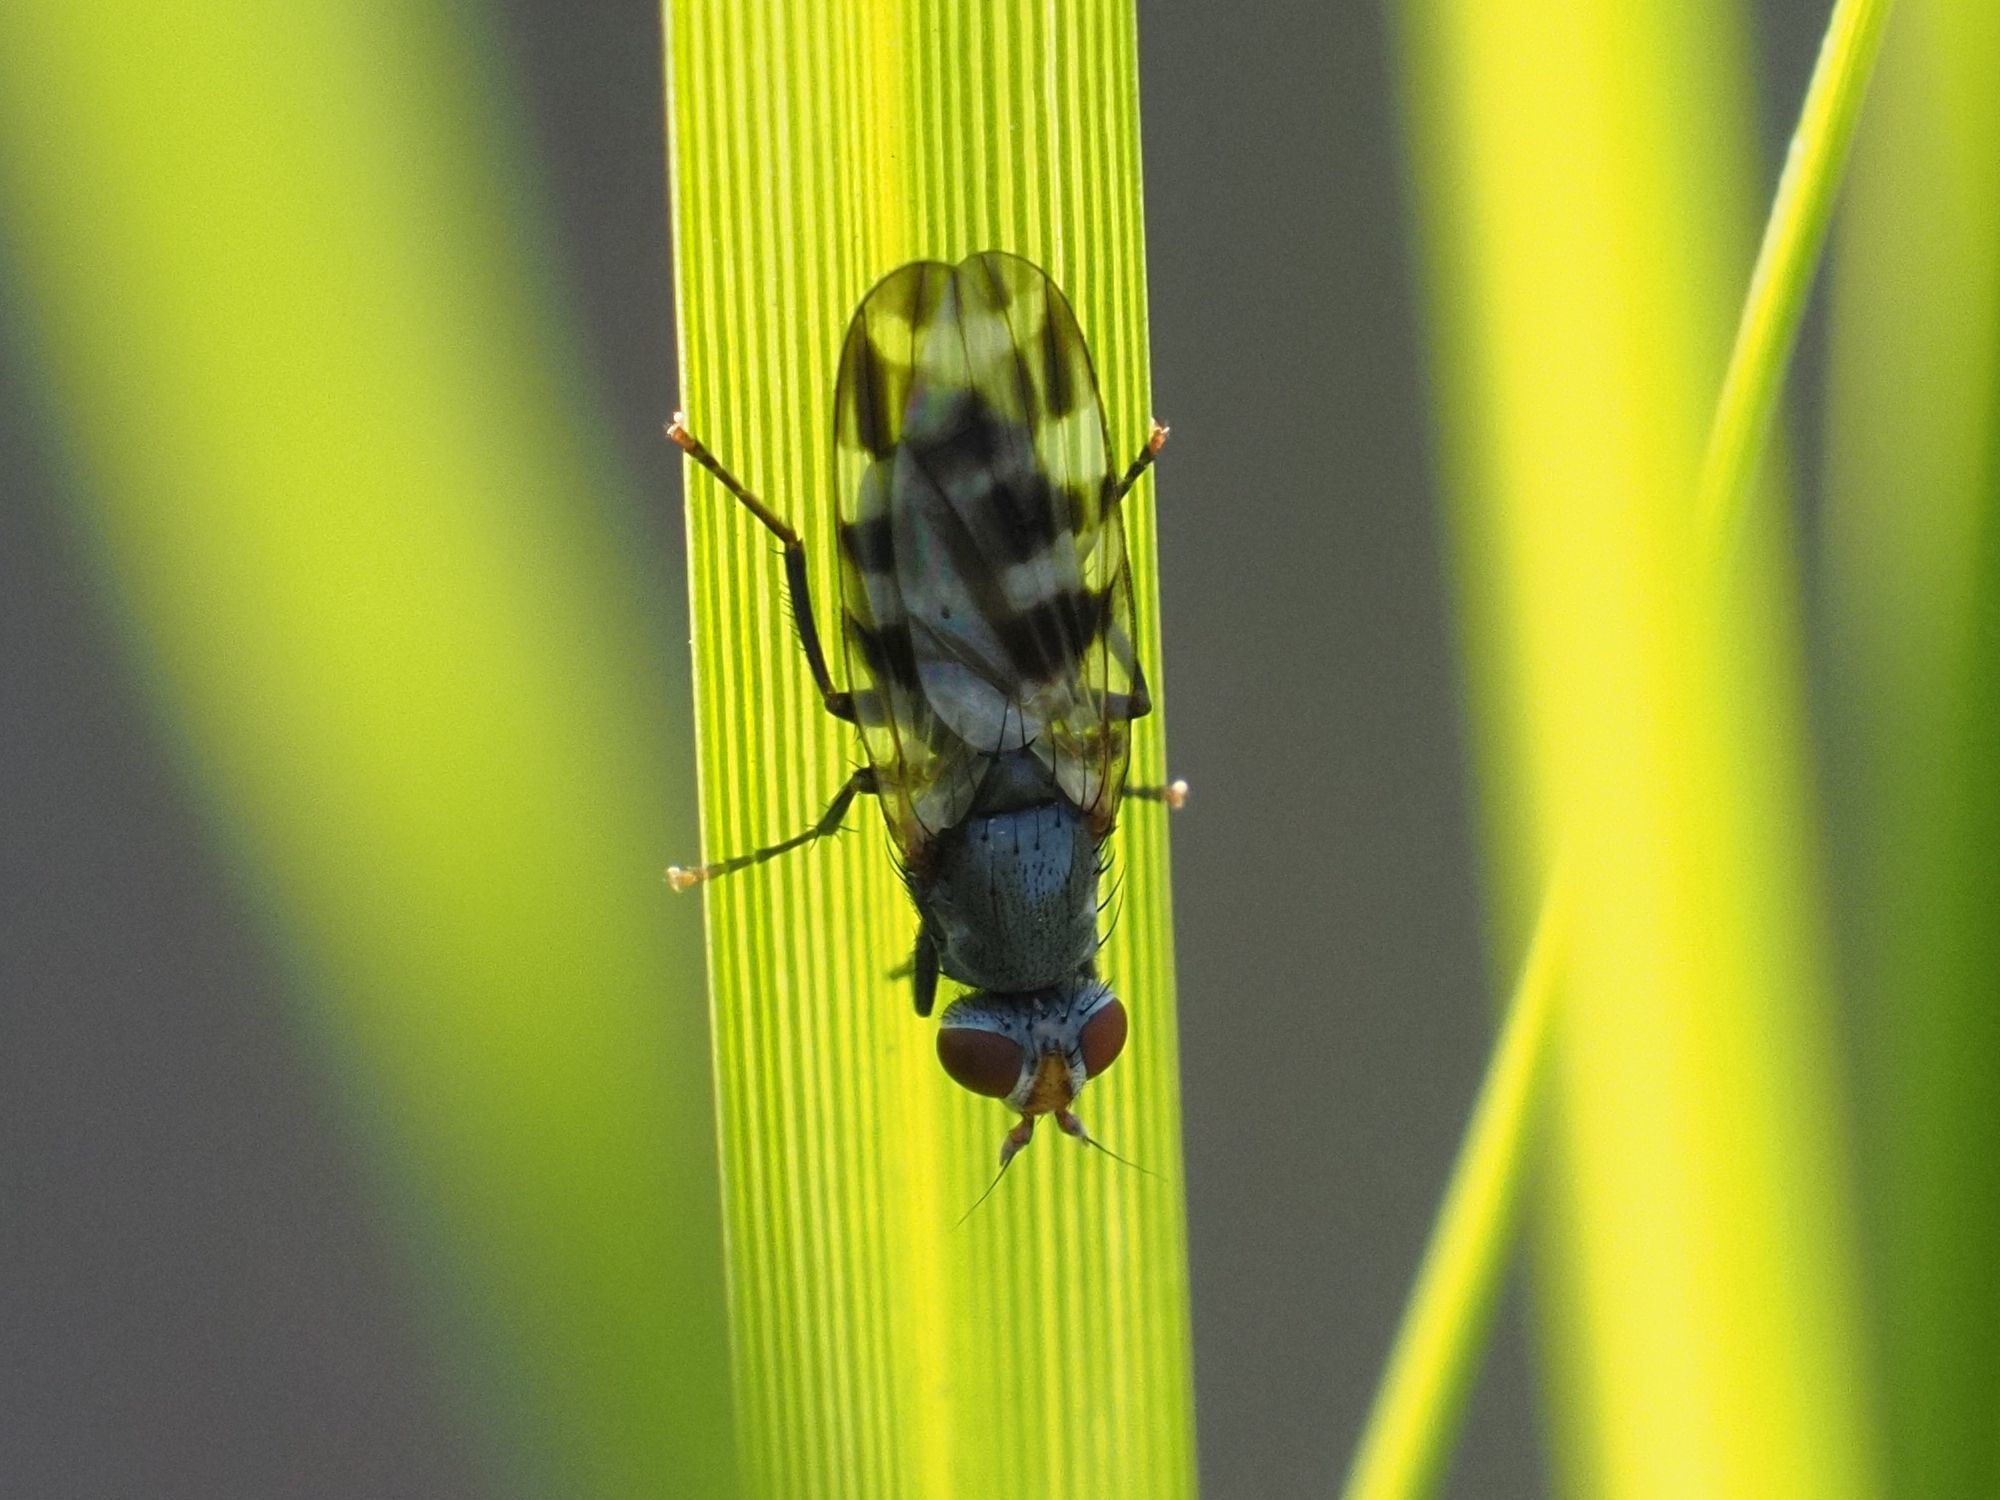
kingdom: Animalia
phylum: Arthropoda
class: Insecta
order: Diptera
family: Ulidiidae
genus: Ceroxys
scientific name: Ceroxys urticae
